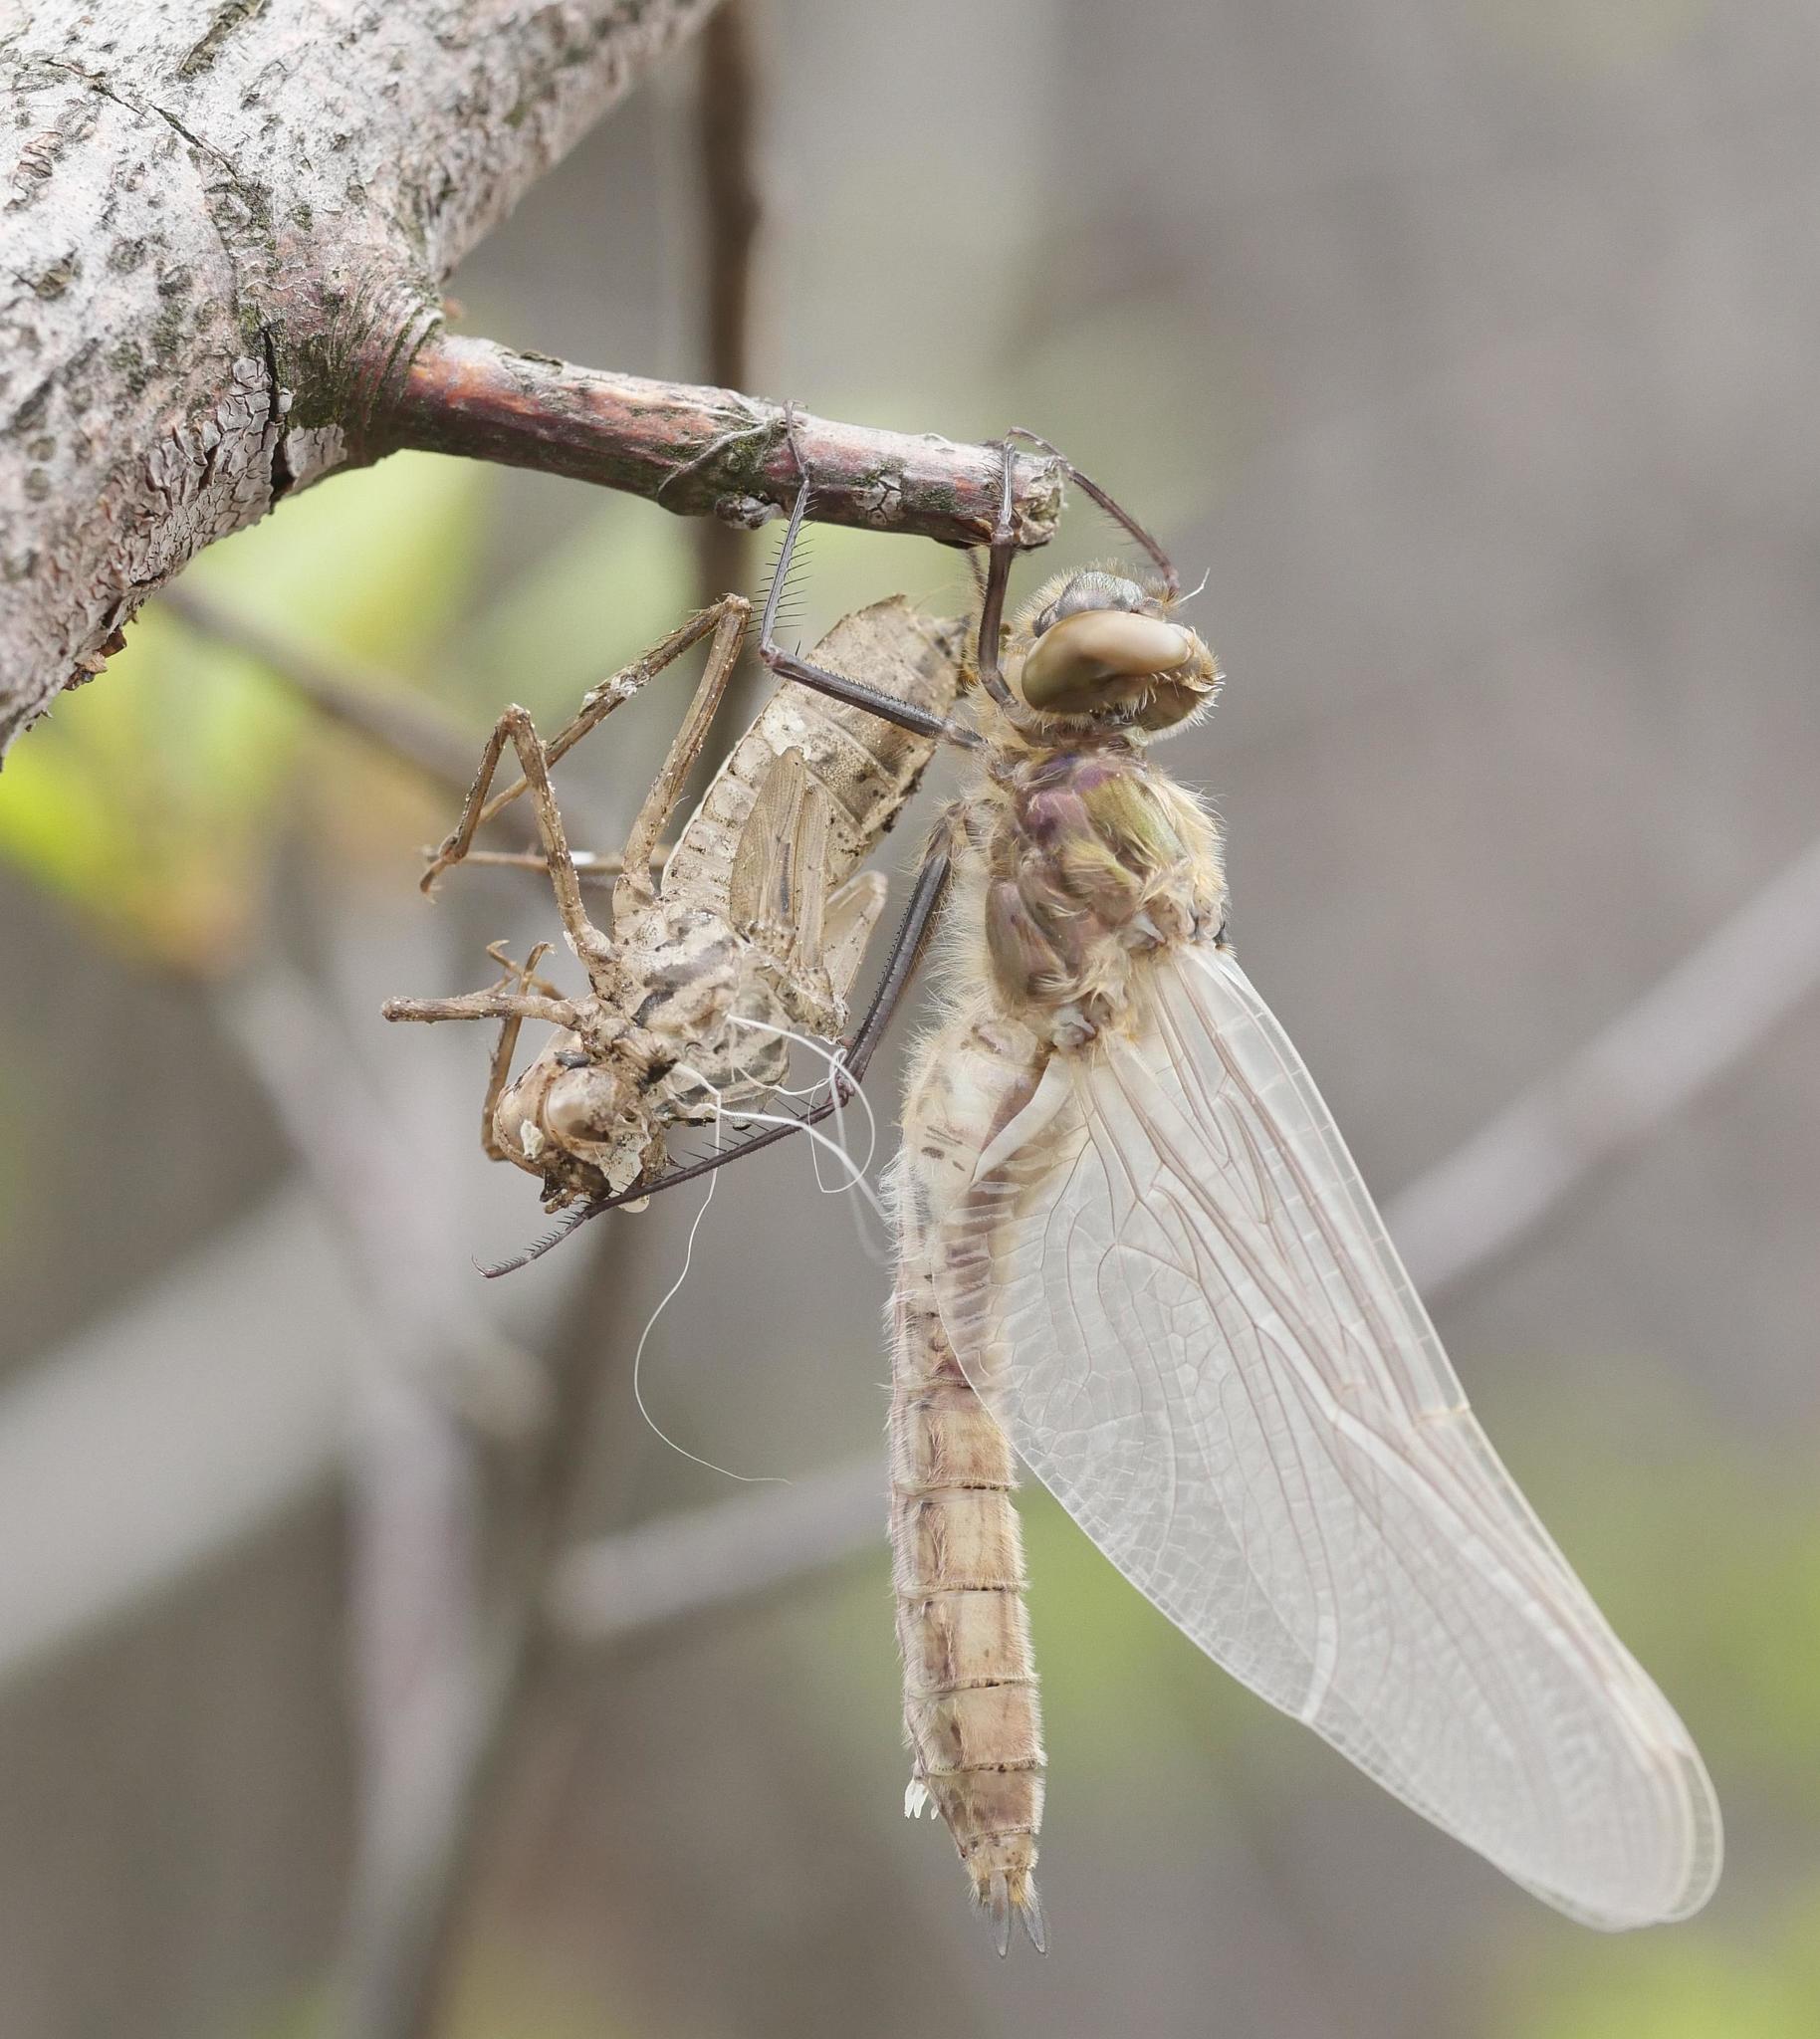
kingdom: Animalia
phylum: Arthropoda
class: Insecta
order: Odonata
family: Corduliidae
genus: Cordulia
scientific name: Cordulia aenea
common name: Downy emerald
